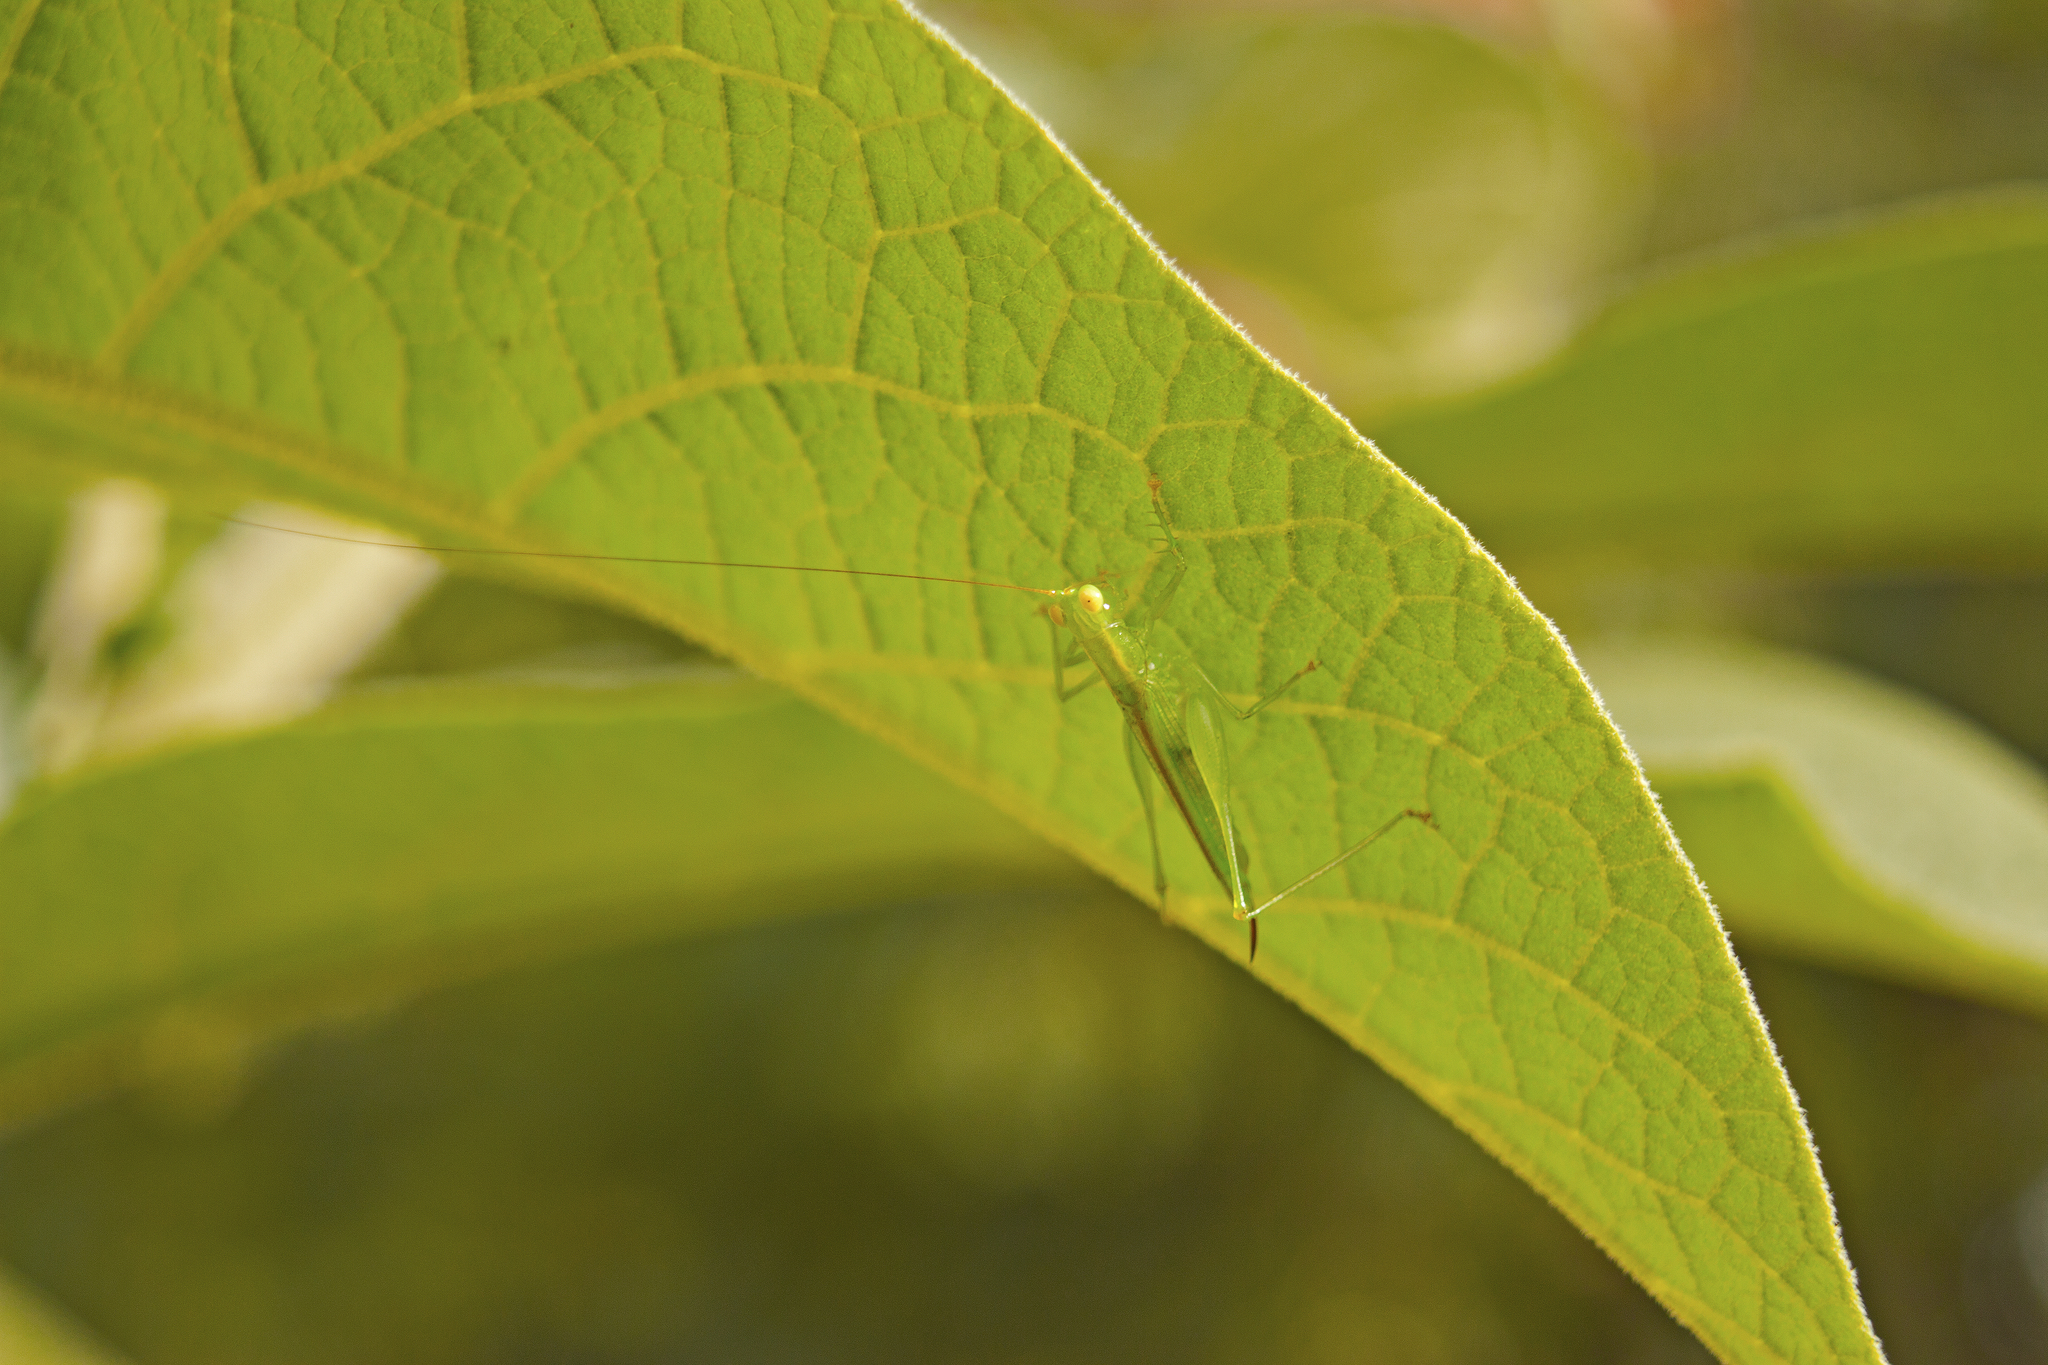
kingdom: Animalia
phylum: Arthropoda
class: Insecta
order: Orthoptera
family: Tettigoniidae
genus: Austrophlugis
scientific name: Austrophlugis debaari
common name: Debaar's swayer
